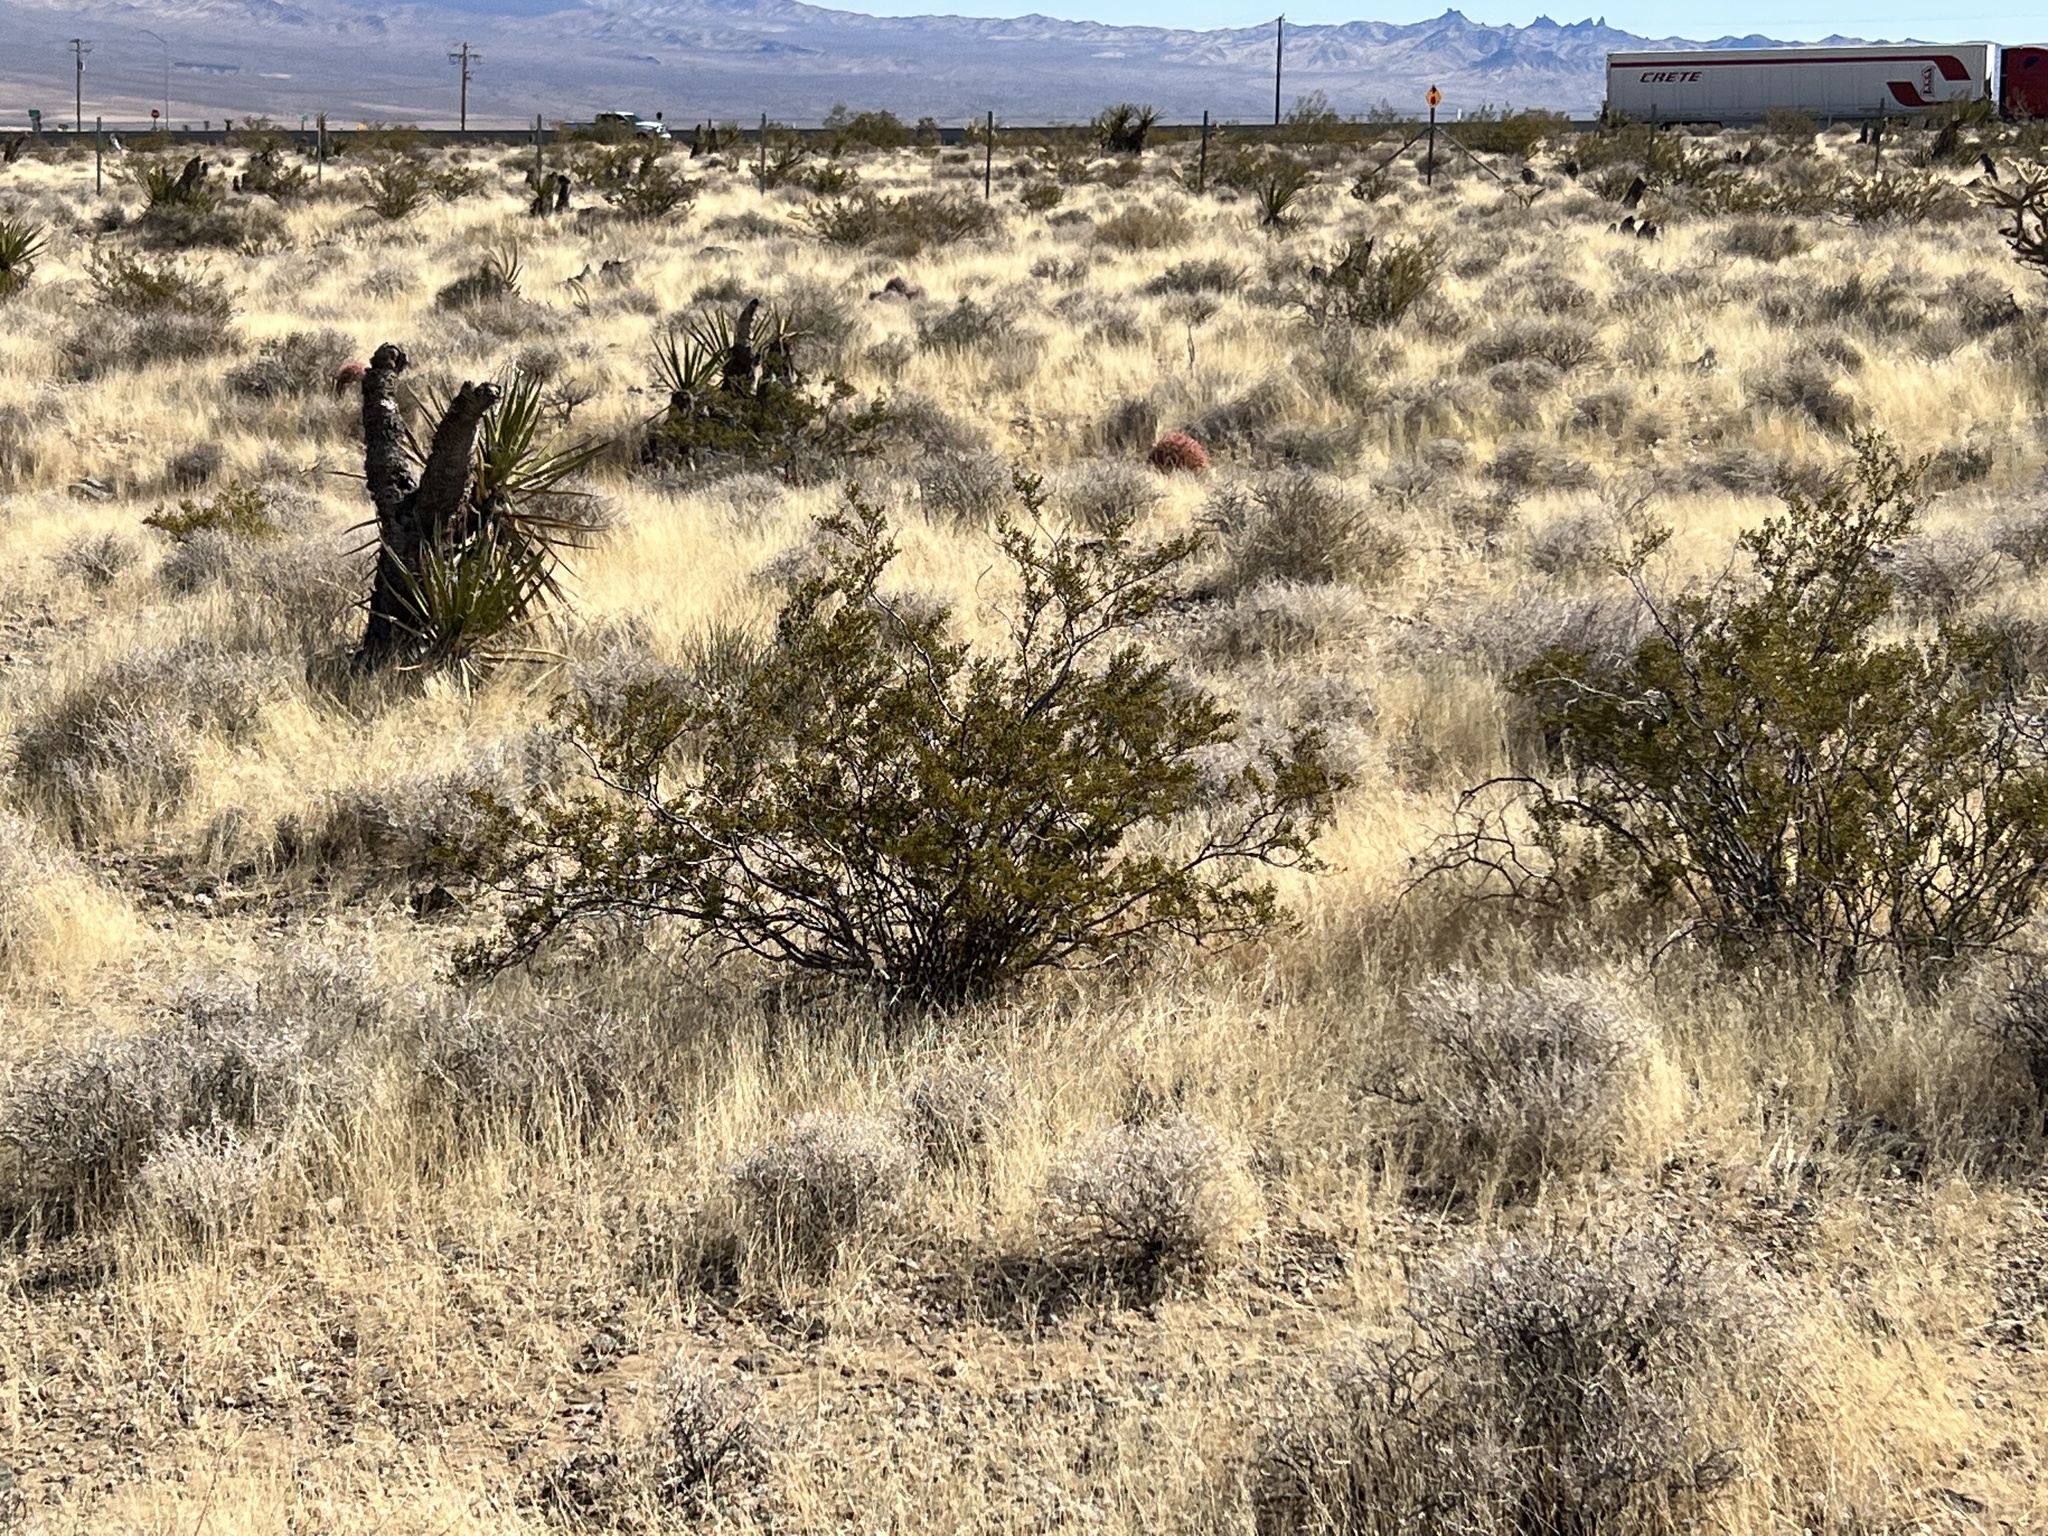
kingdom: Plantae
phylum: Tracheophyta
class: Magnoliopsida
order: Zygophyllales
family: Zygophyllaceae
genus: Larrea
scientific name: Larrea tridentata
